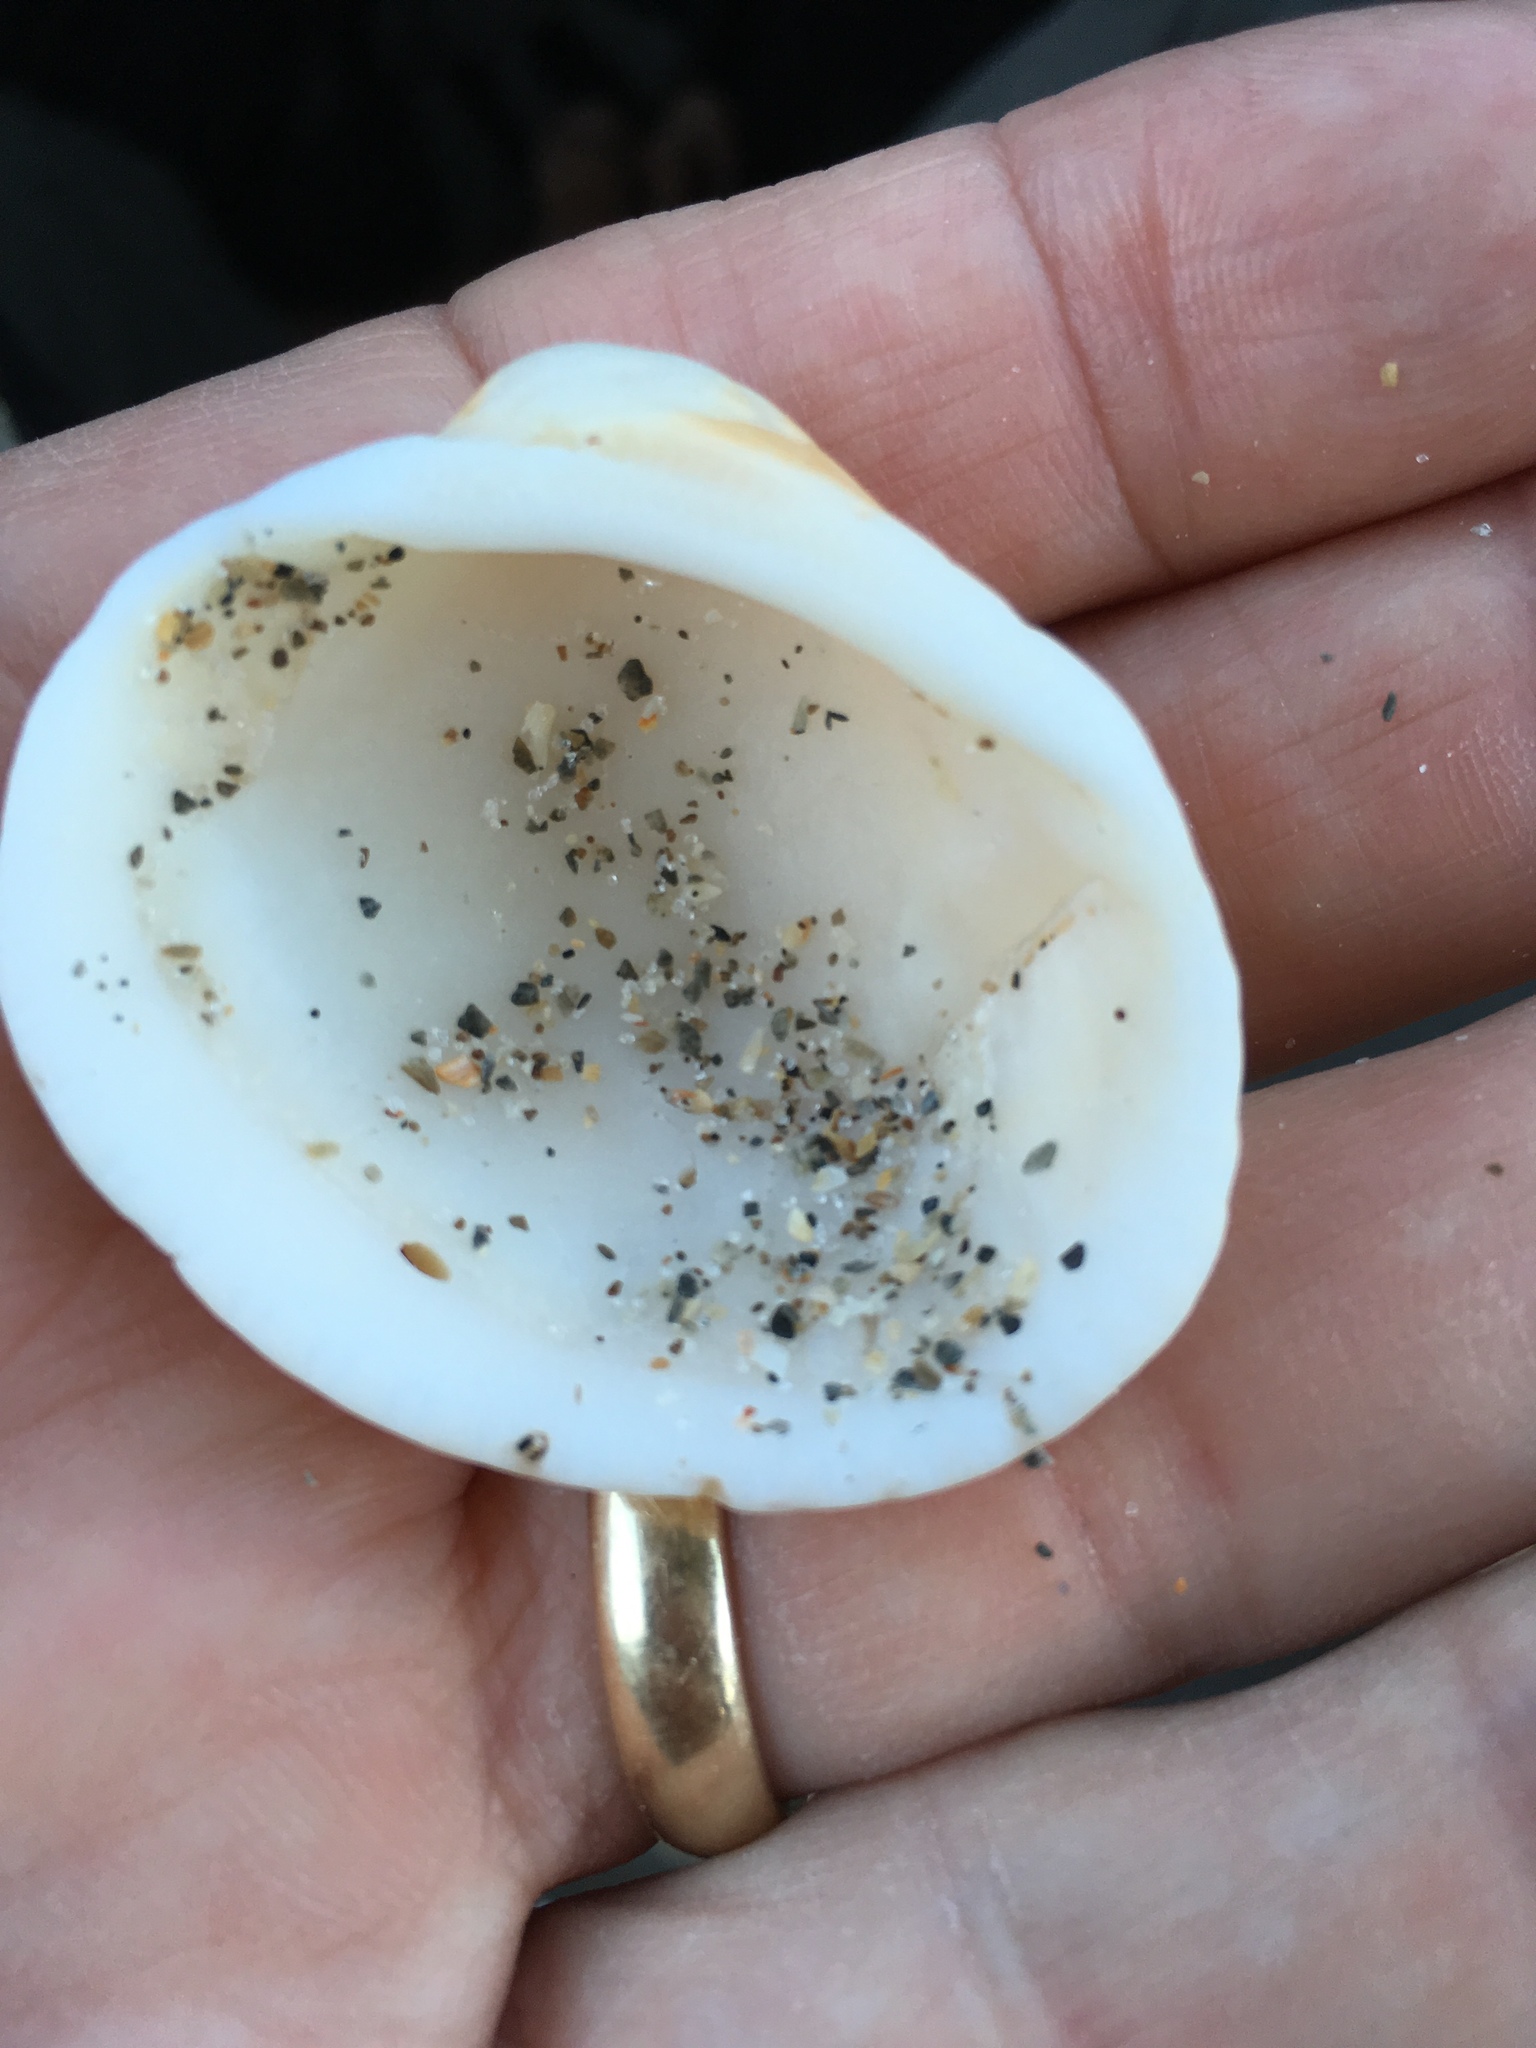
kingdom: Animalia
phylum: Mollusca
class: Bivalvia
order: Arcida
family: Arcidae
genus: Lunarca
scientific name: Lunarca ovalis
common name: Blood ark
